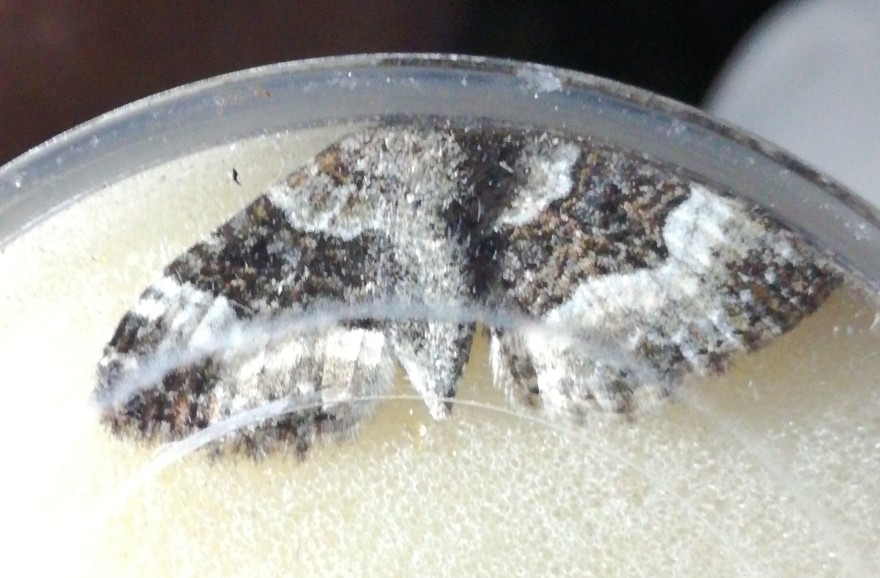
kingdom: Animalia
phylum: Arthropoda
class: Insecta
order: Lepidoptera
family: Geometridae
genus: Epirrhoe
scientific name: Epirrhoe alternata
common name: Common carpet
